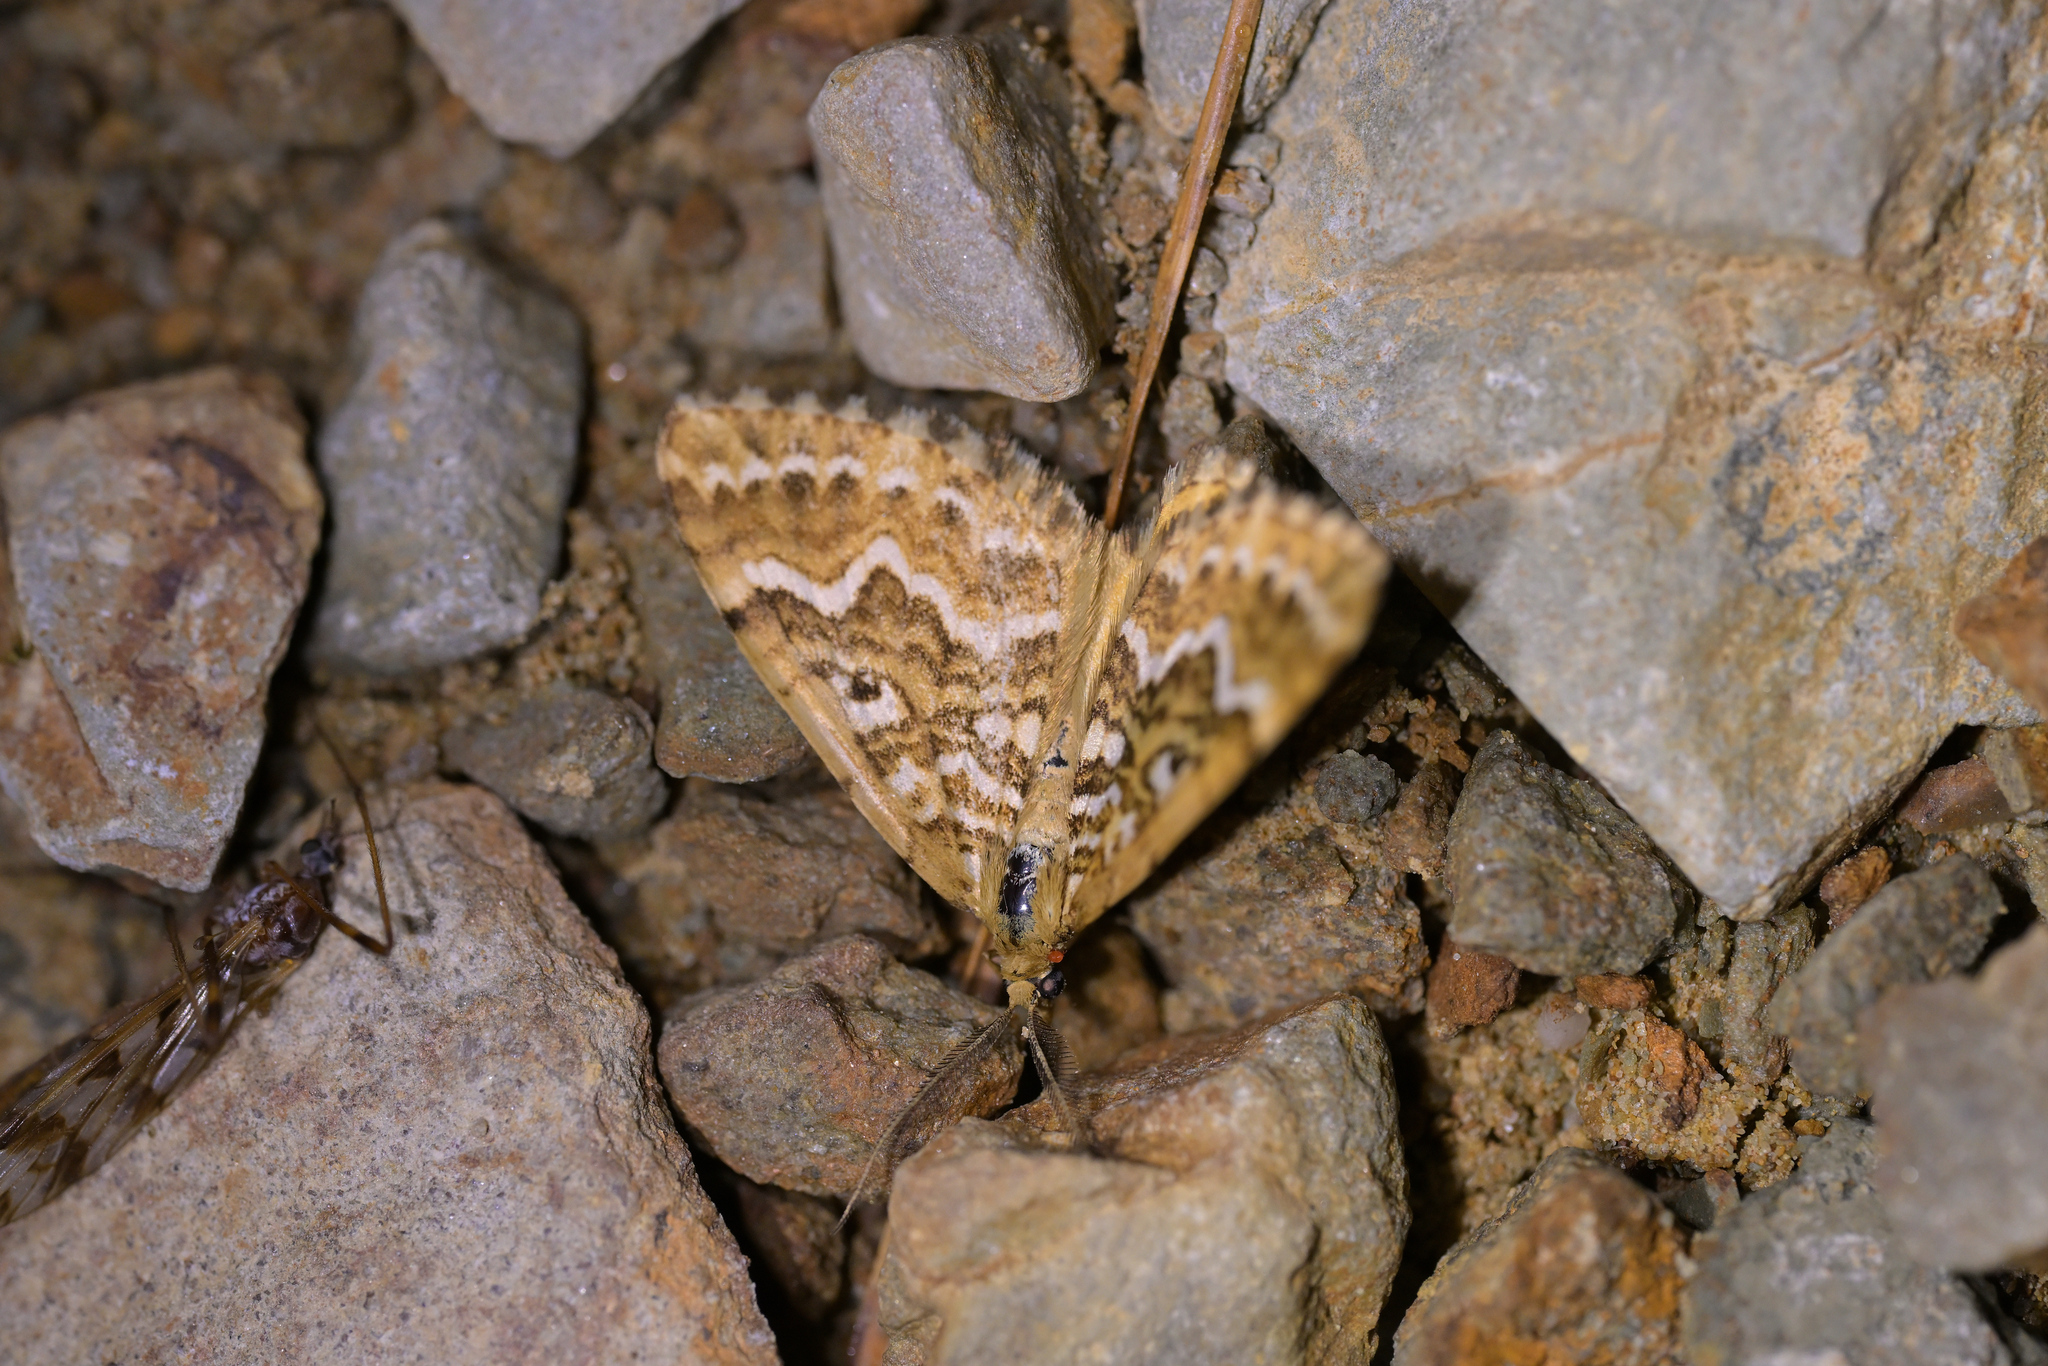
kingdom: Animalia
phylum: Arthropoda
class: Insecta
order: Lepidoptera
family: Geometridae
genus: Asaphodes
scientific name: Asaphodes clarata
